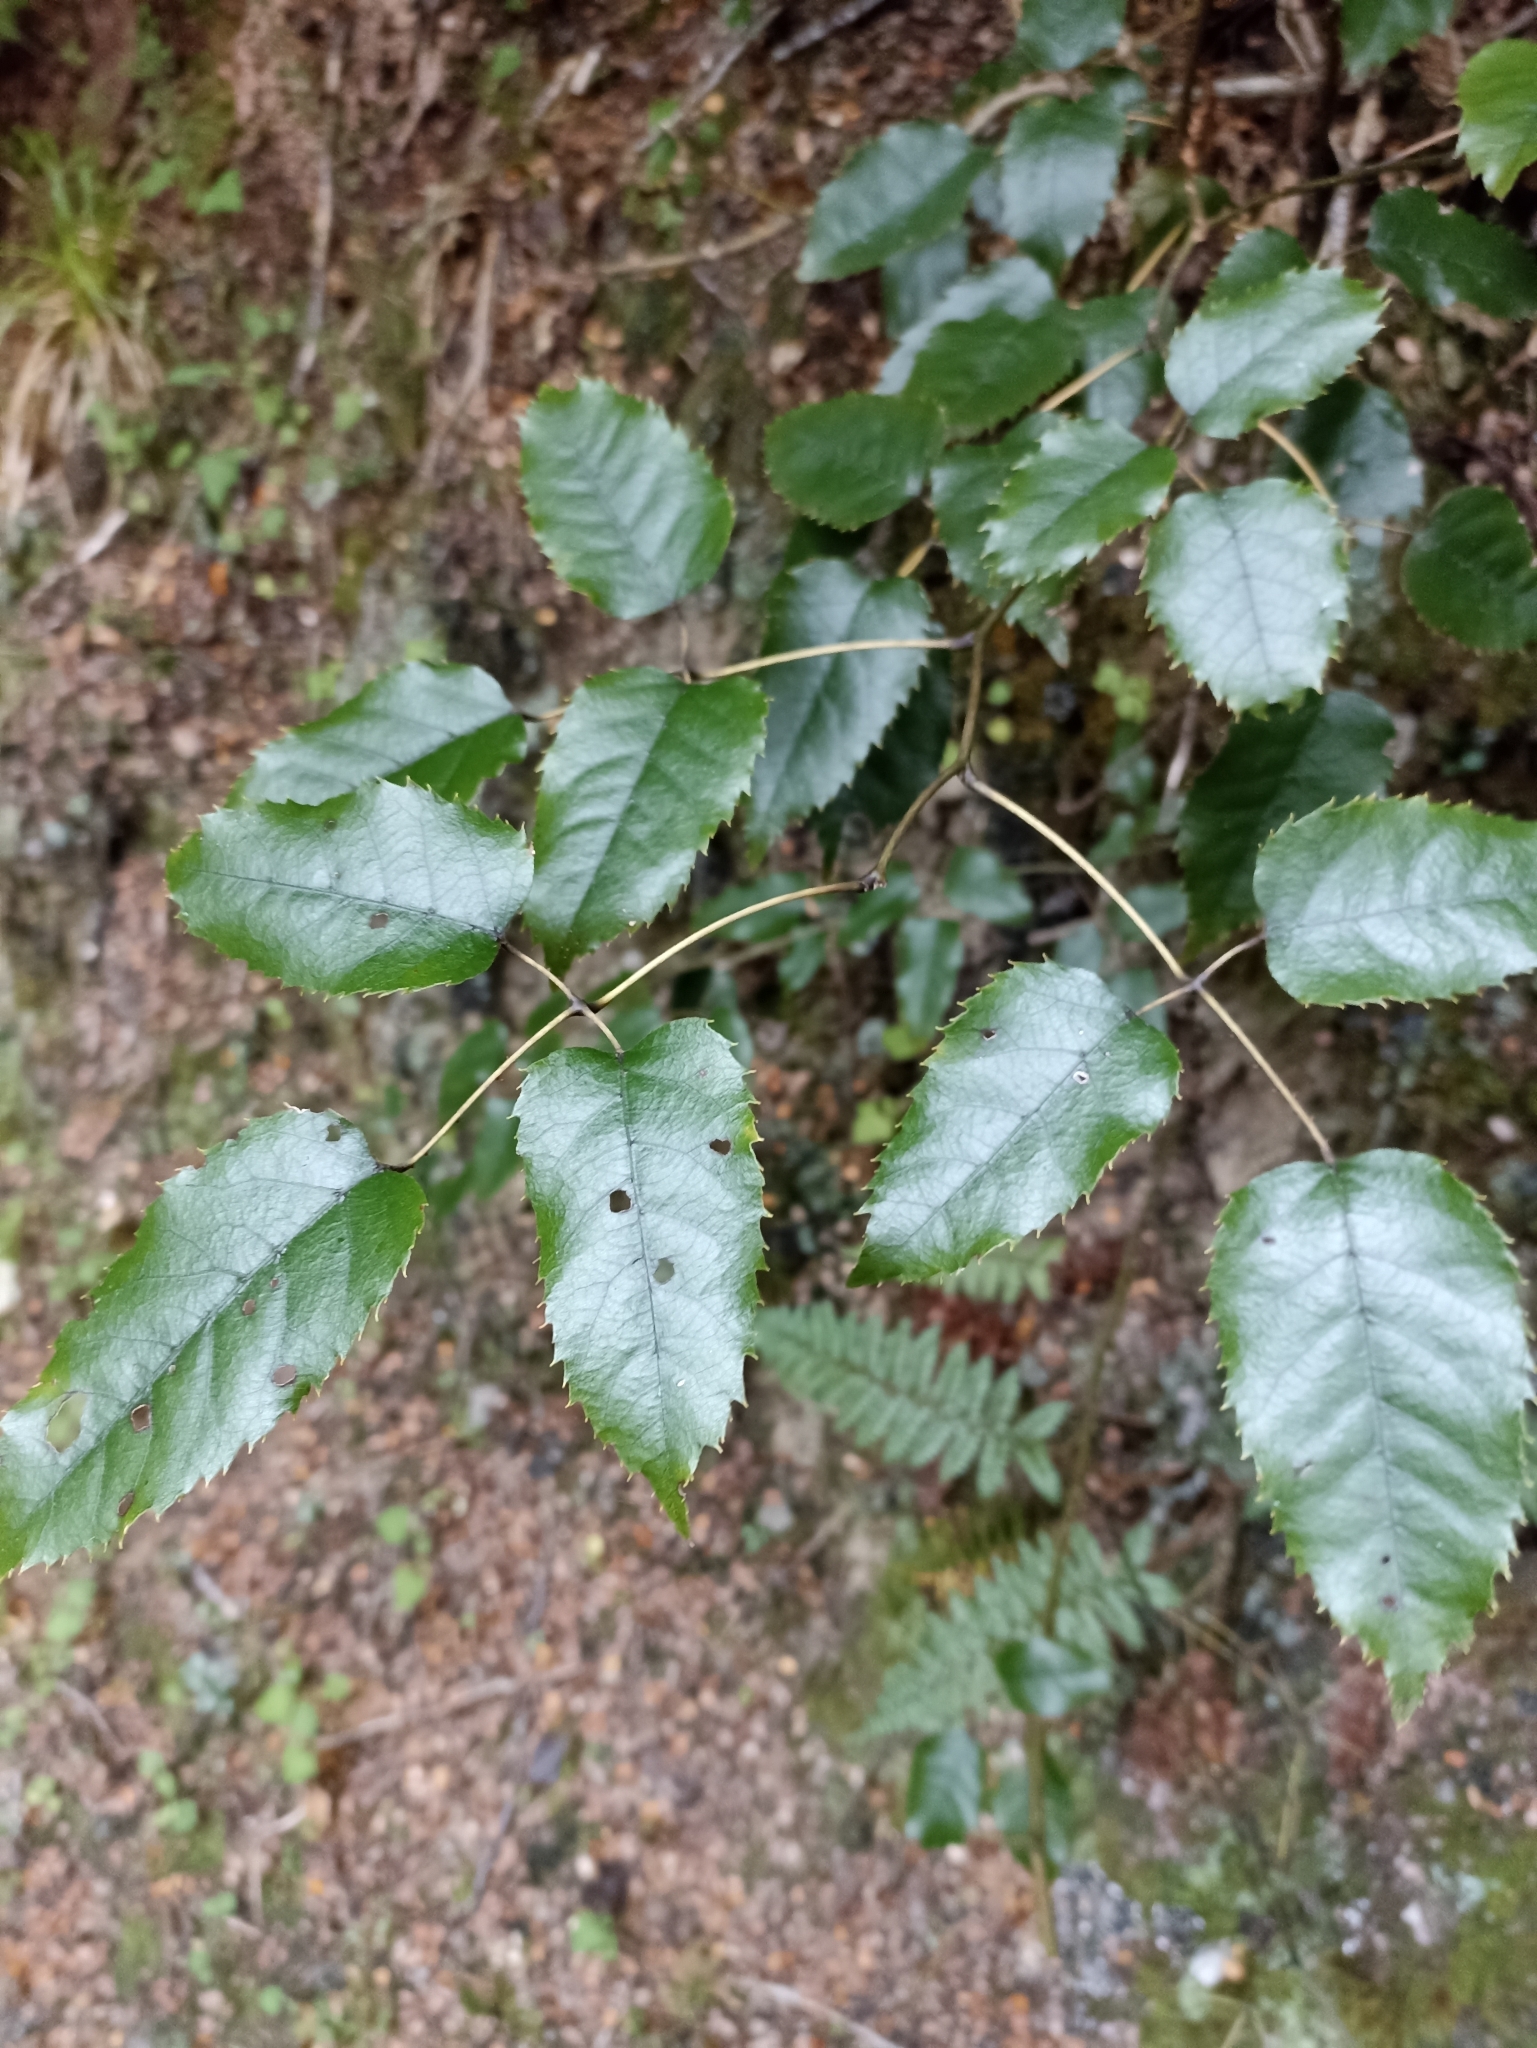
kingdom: Plantae
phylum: Tracheophyta
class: Magnoliopsida
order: Rosales
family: Rosaceae
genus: Rubus
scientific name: Rubus cissoides
